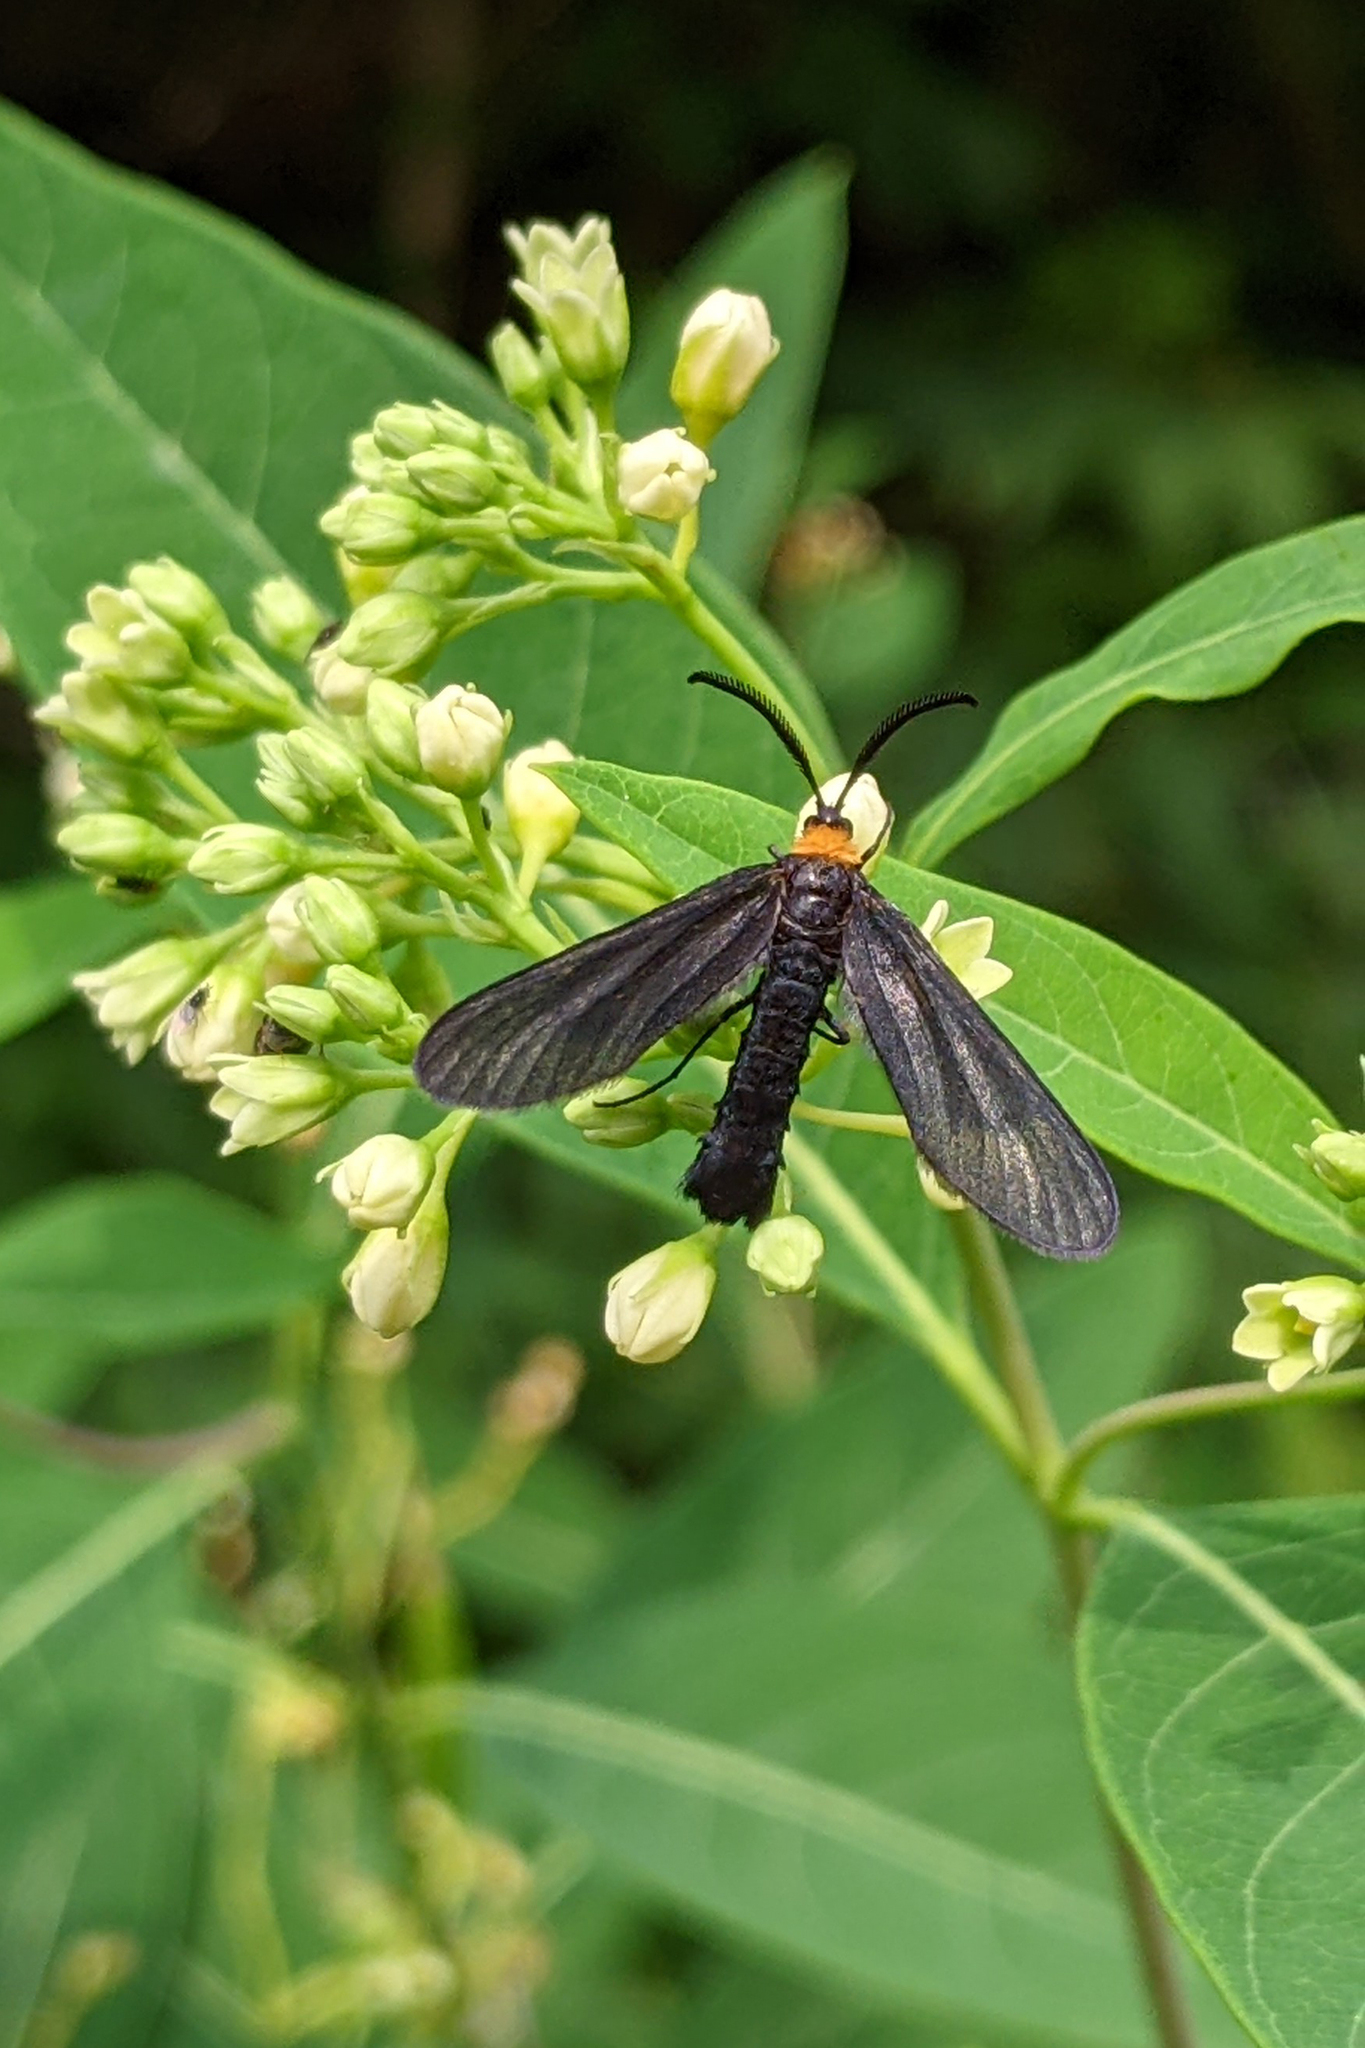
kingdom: Animalia
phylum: Arthropoda
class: Insecta
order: Lepidoptera
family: Zygaenidae
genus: Harrisina
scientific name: Harrisina americana
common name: Grapeleaf skeletonizer moth
